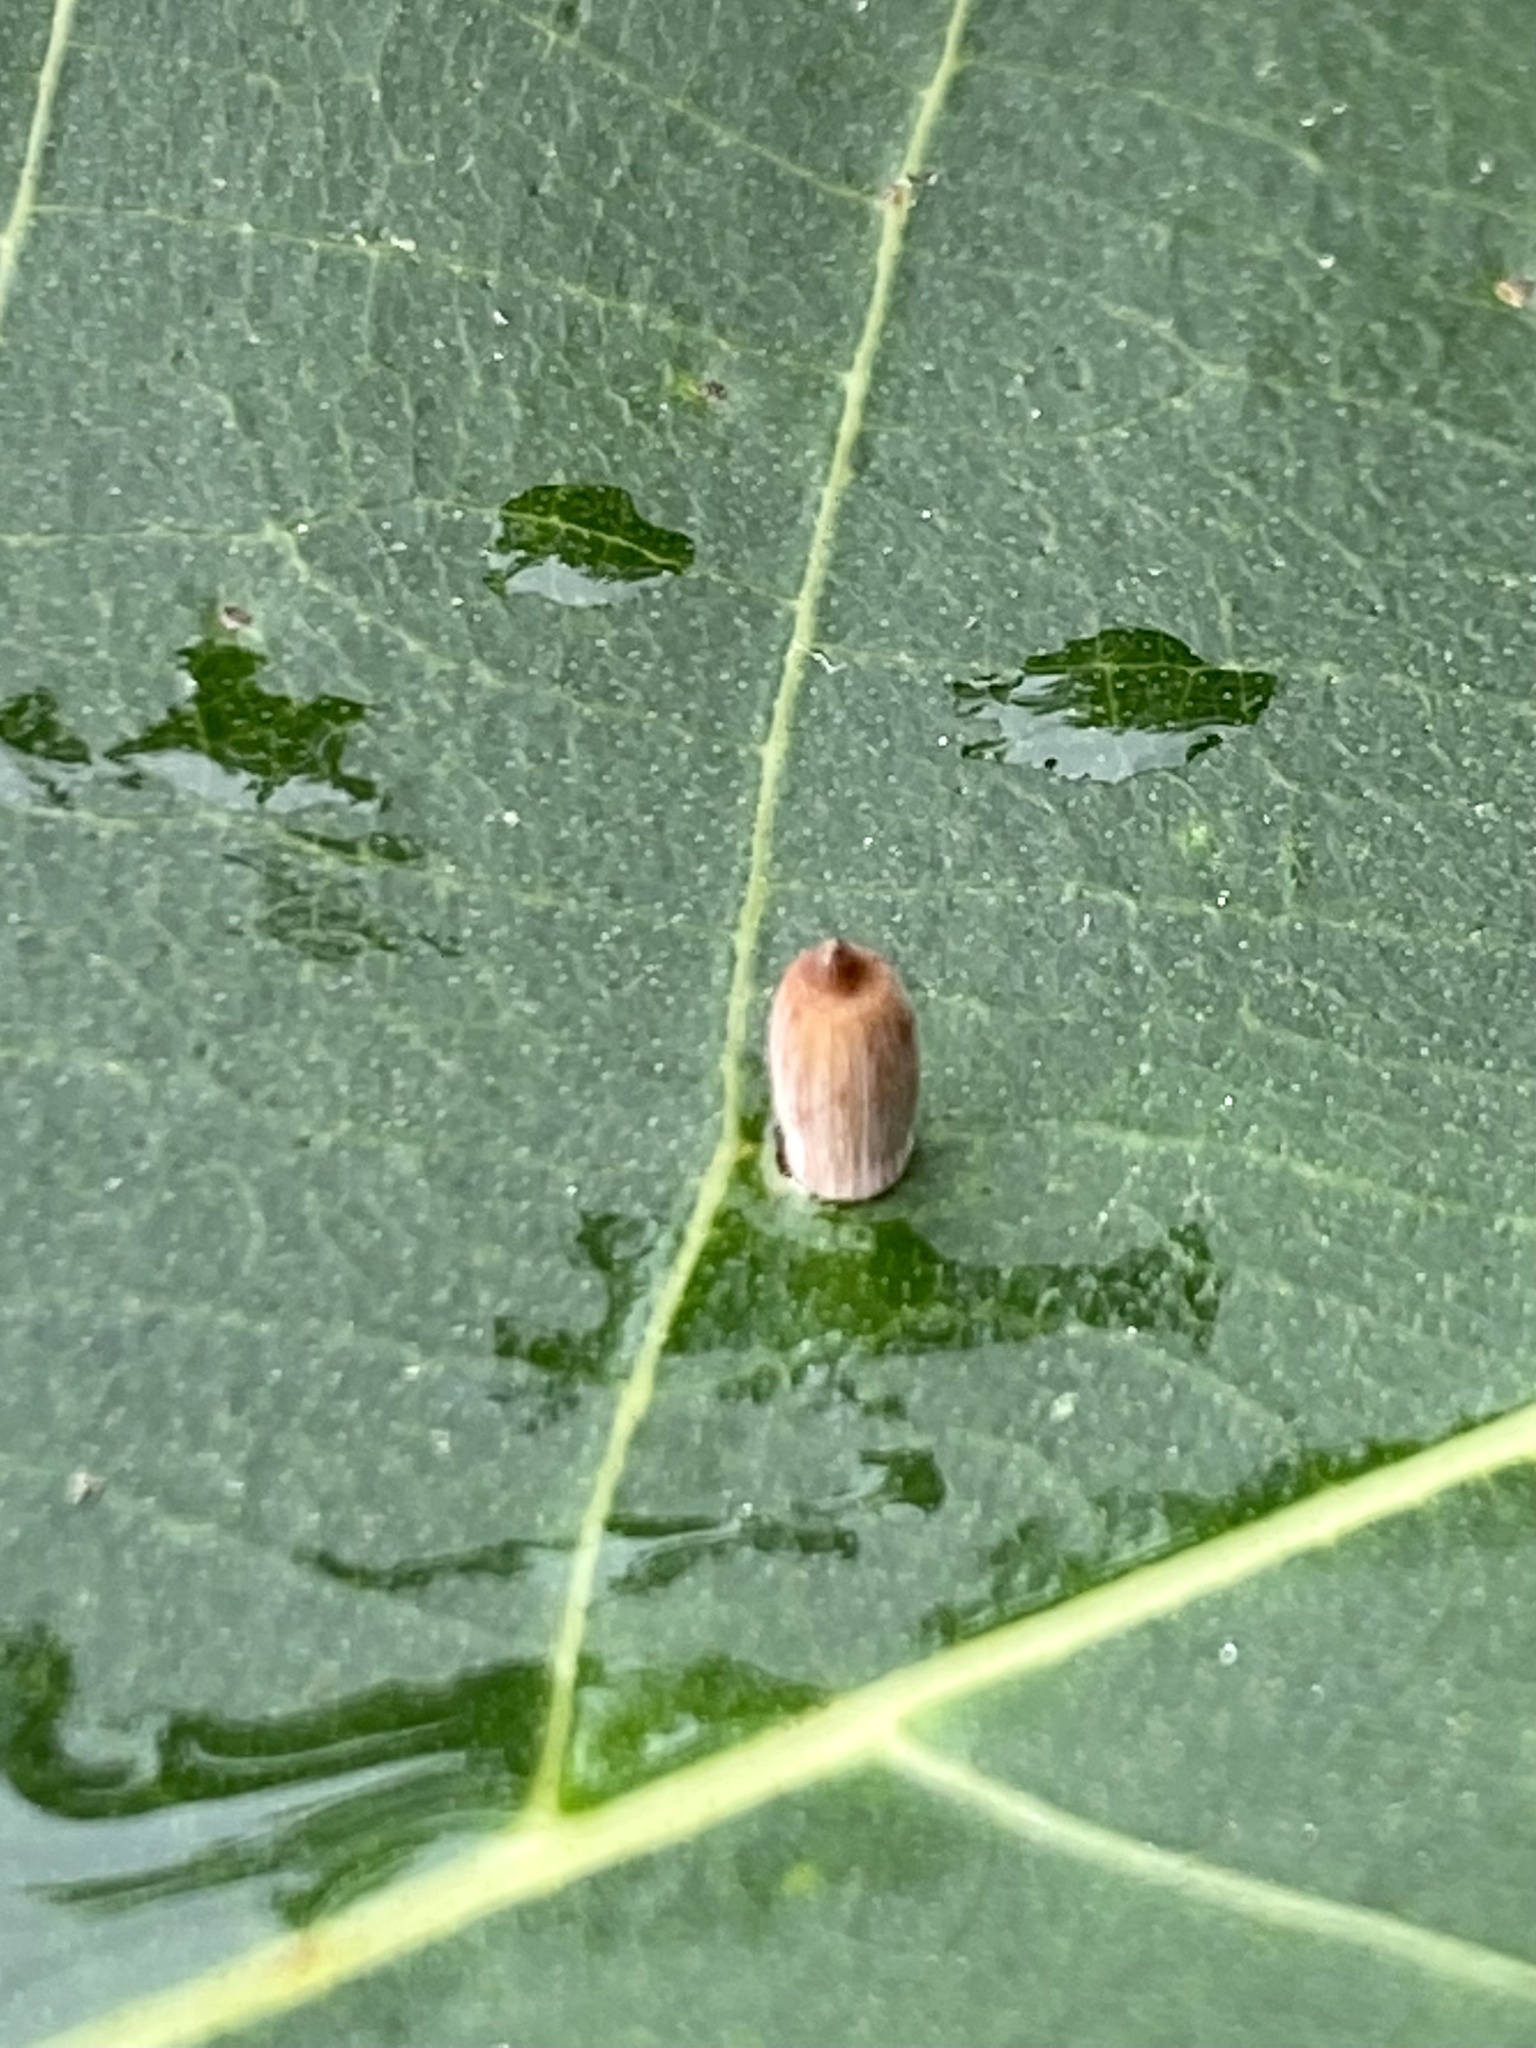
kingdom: Animalia
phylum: Arthropoda
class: Insecta
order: Diptera
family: Cecidomyiidae
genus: Caryomyia
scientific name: Caryomyia urnula
